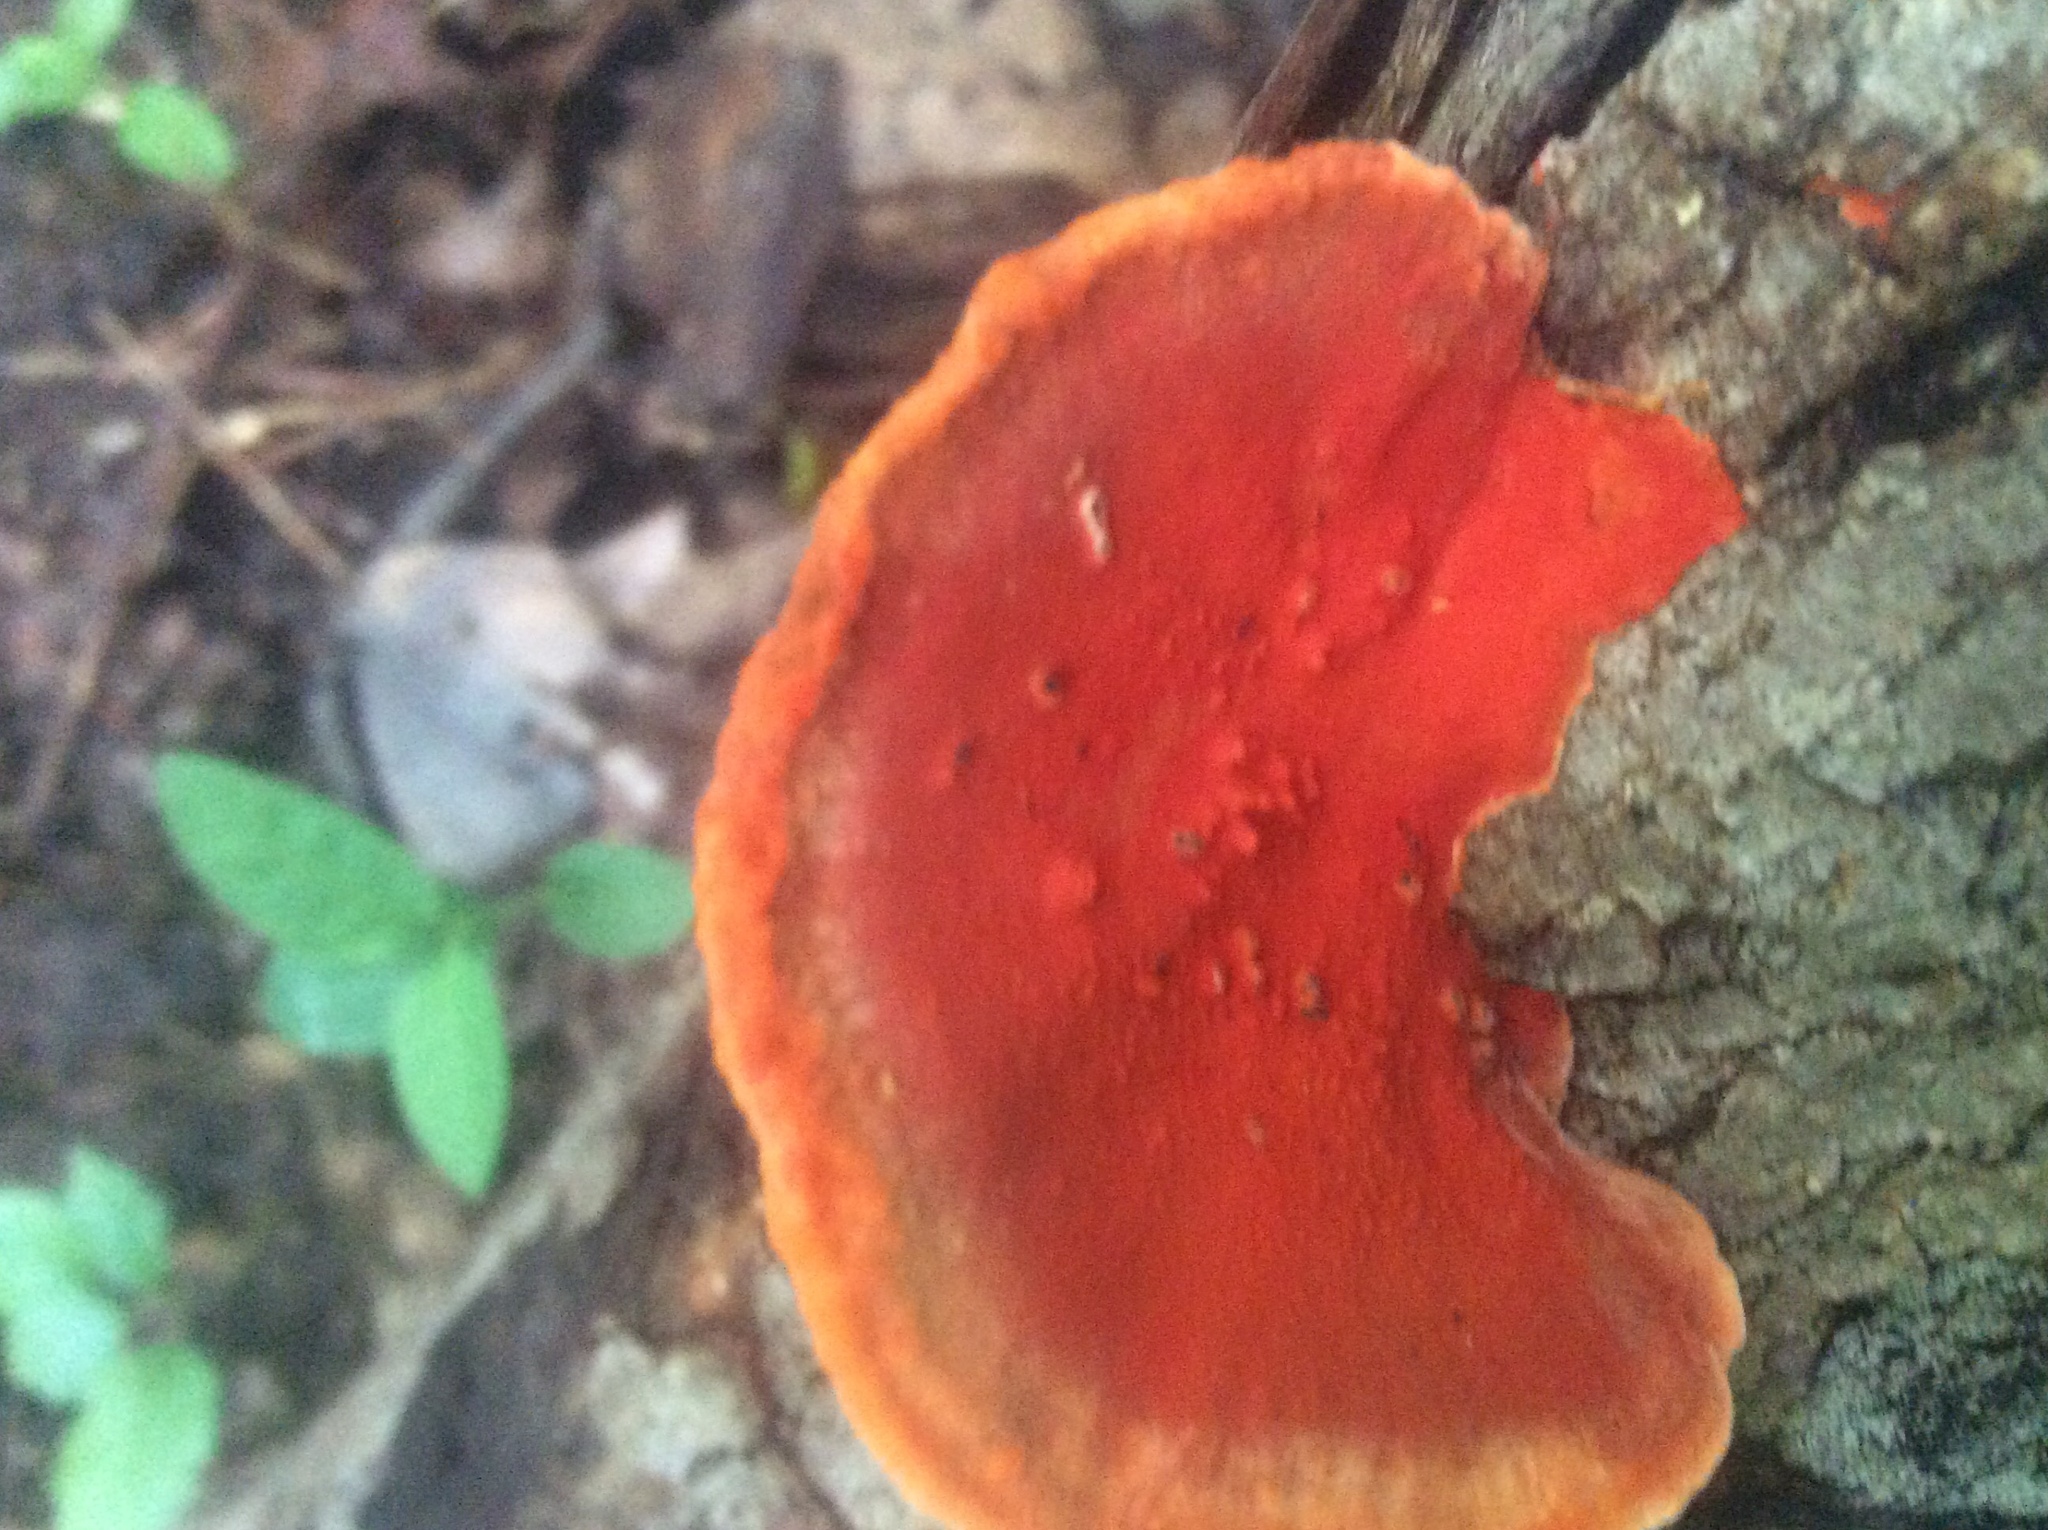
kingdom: Fungi
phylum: Basidiomycota
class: Agaricomycetes
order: Polyporales
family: Polyporaceae
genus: Trametes
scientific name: Trametes cinnabarina
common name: Northern cinnabar polypore
